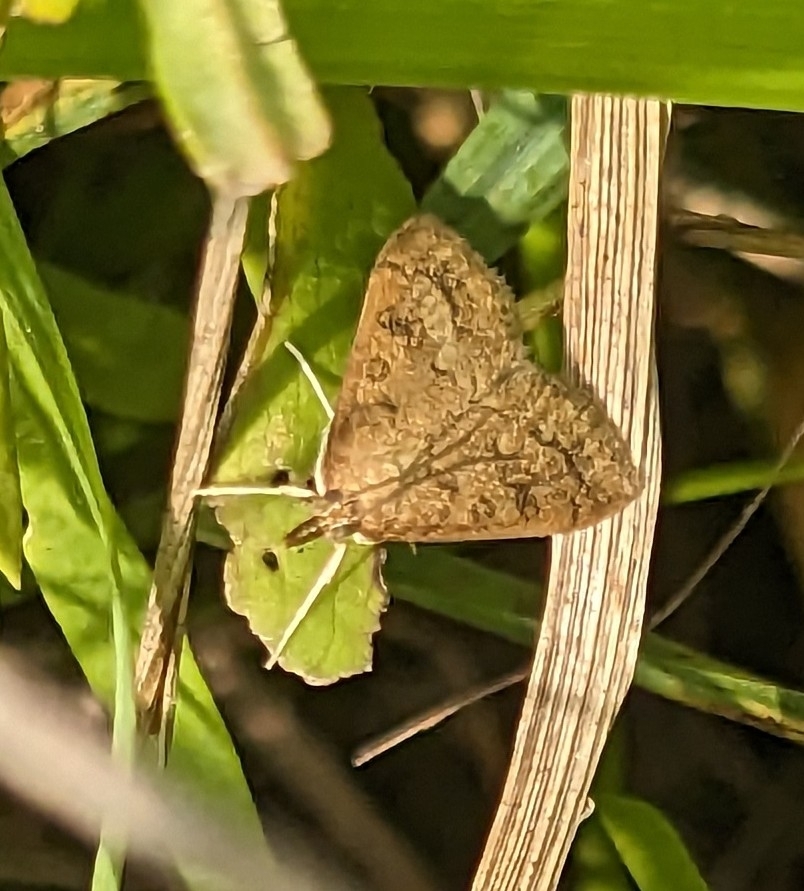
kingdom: Animalia
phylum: Arthropoda
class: Insecta
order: Lepidoptera
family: Crambidae
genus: Udea
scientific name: Udea rubigalis
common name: Celery leaftier moth
